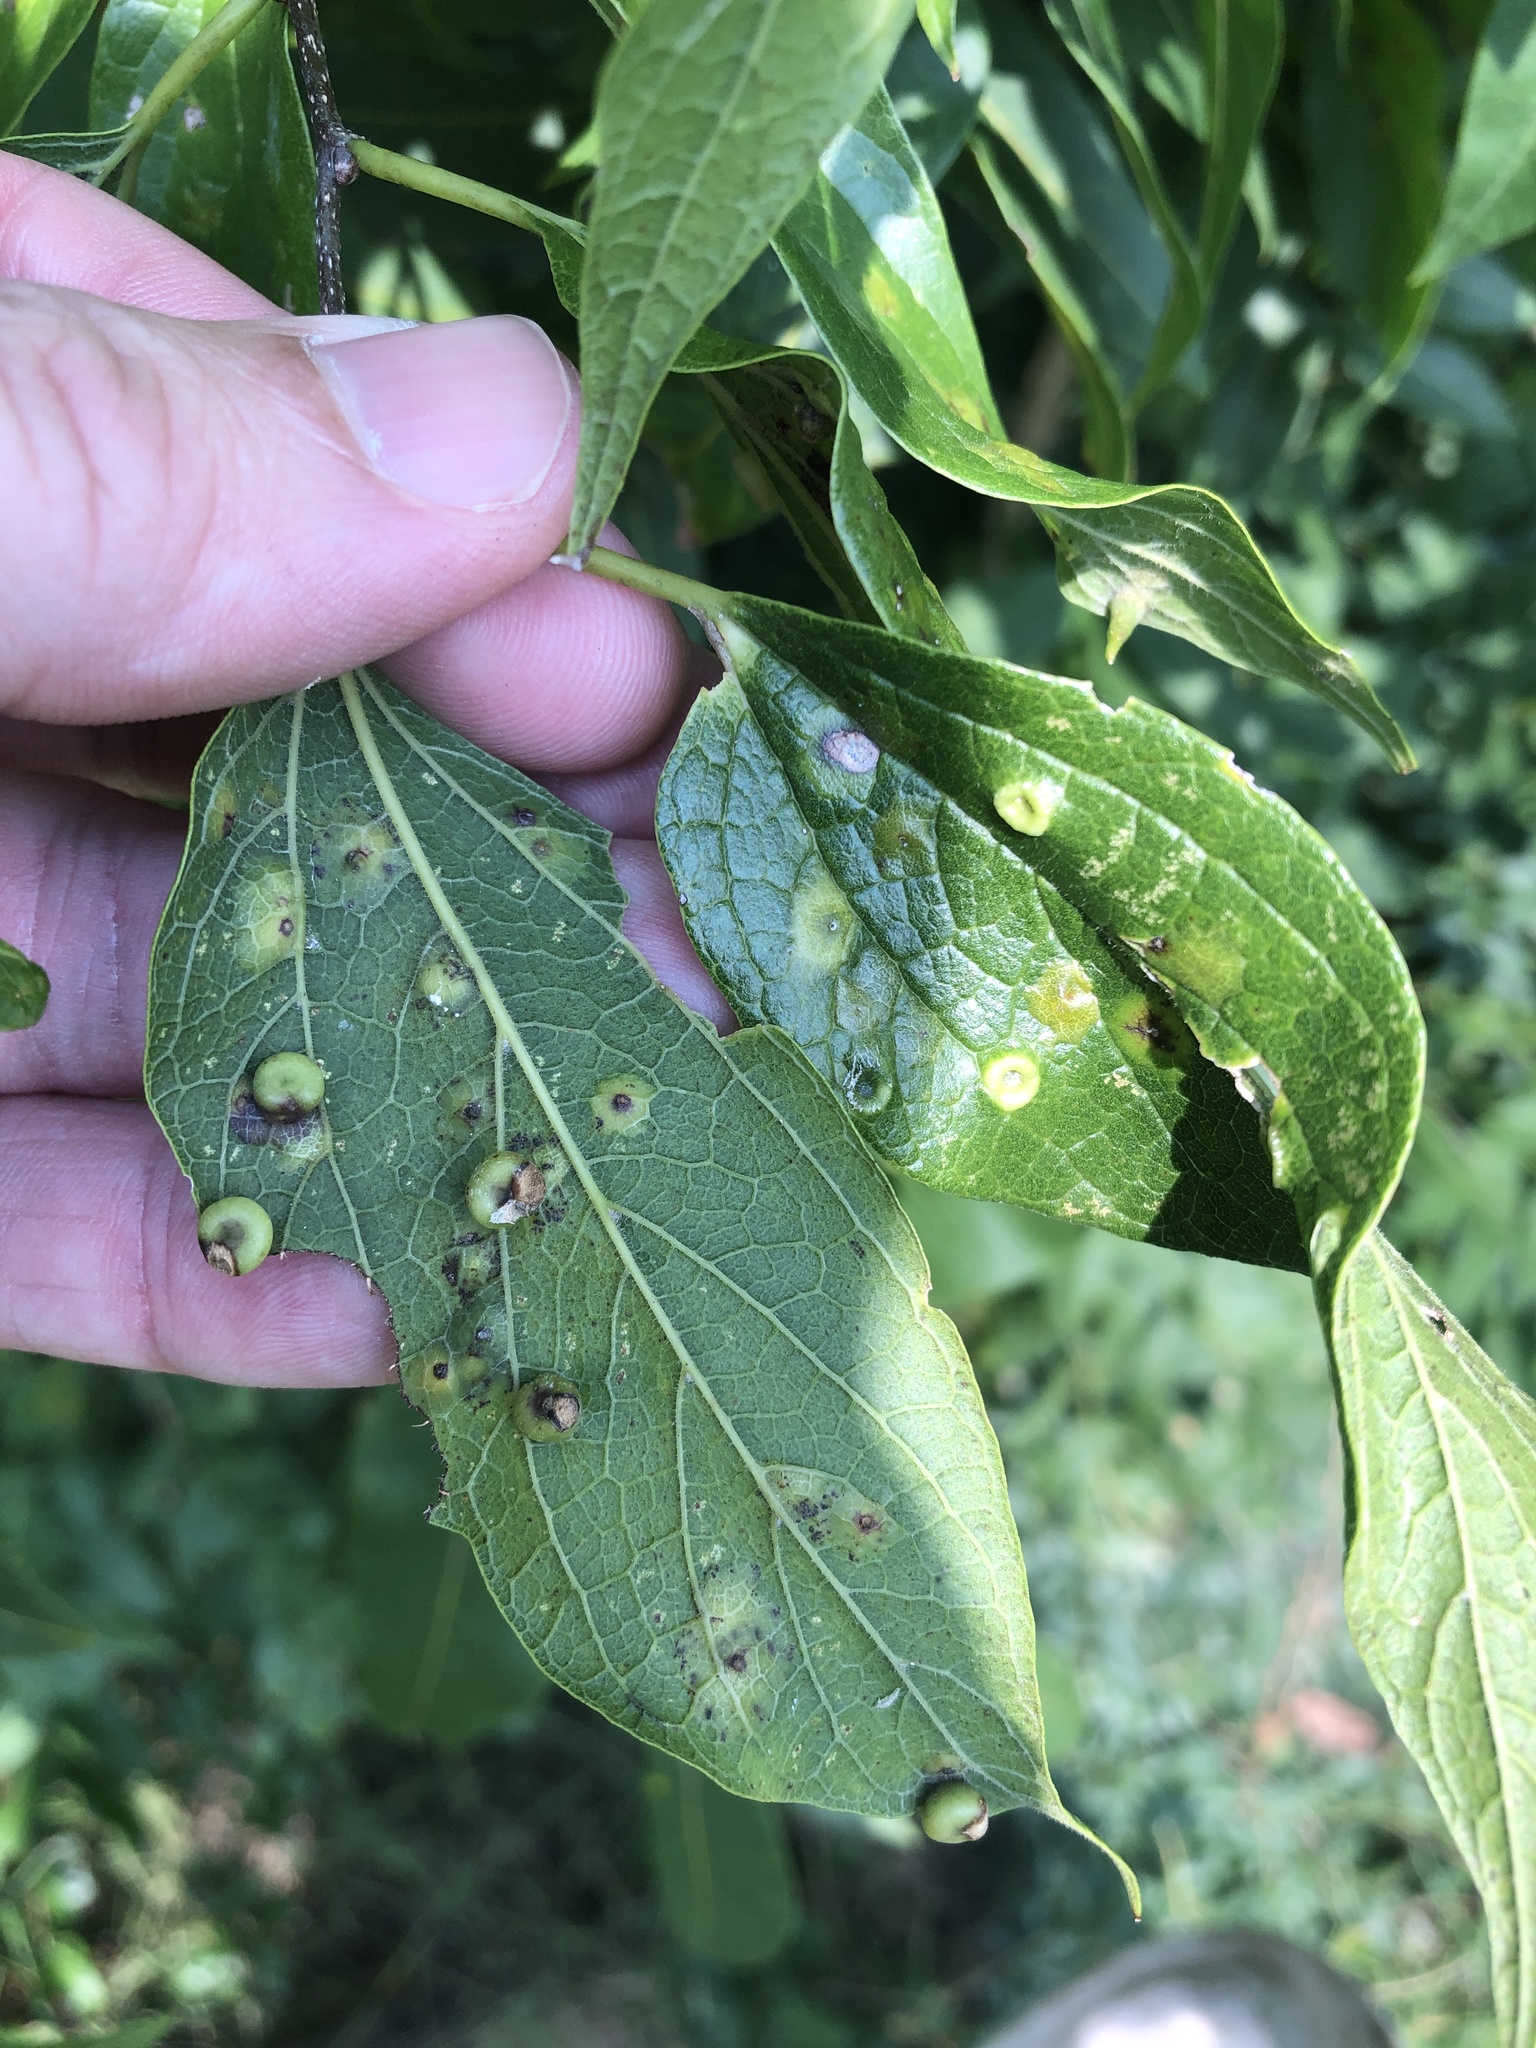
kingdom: Animalia
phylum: Arthropoda
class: Insecta
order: Hemiptera
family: Aphalaridae
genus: Pachypsylla
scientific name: Pachypsylla celtidismamma
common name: Hackberry nipplegall psyllid
